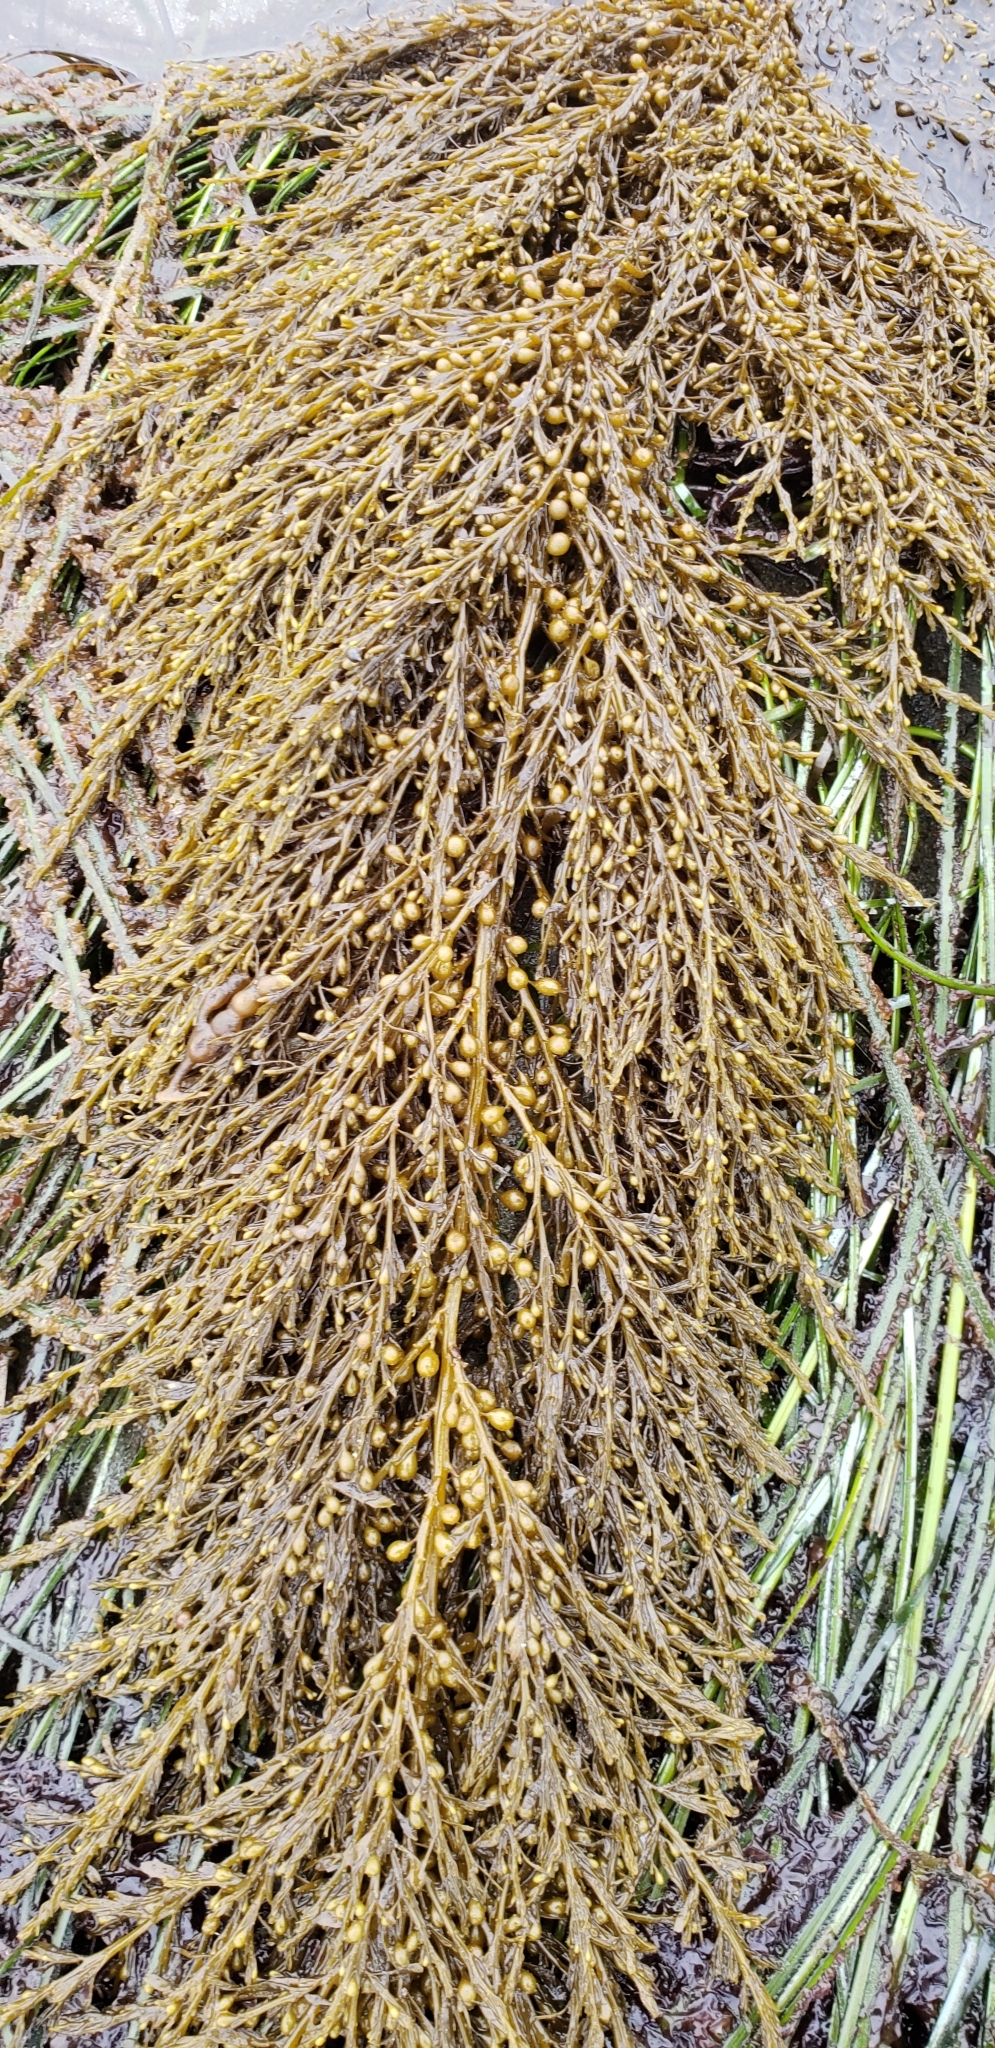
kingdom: Chromista
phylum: Ochrophyta
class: Phaeophyceae
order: Fucales
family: Sargassaceae
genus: Sargassum
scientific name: Sargassum muticum
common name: Japweed
